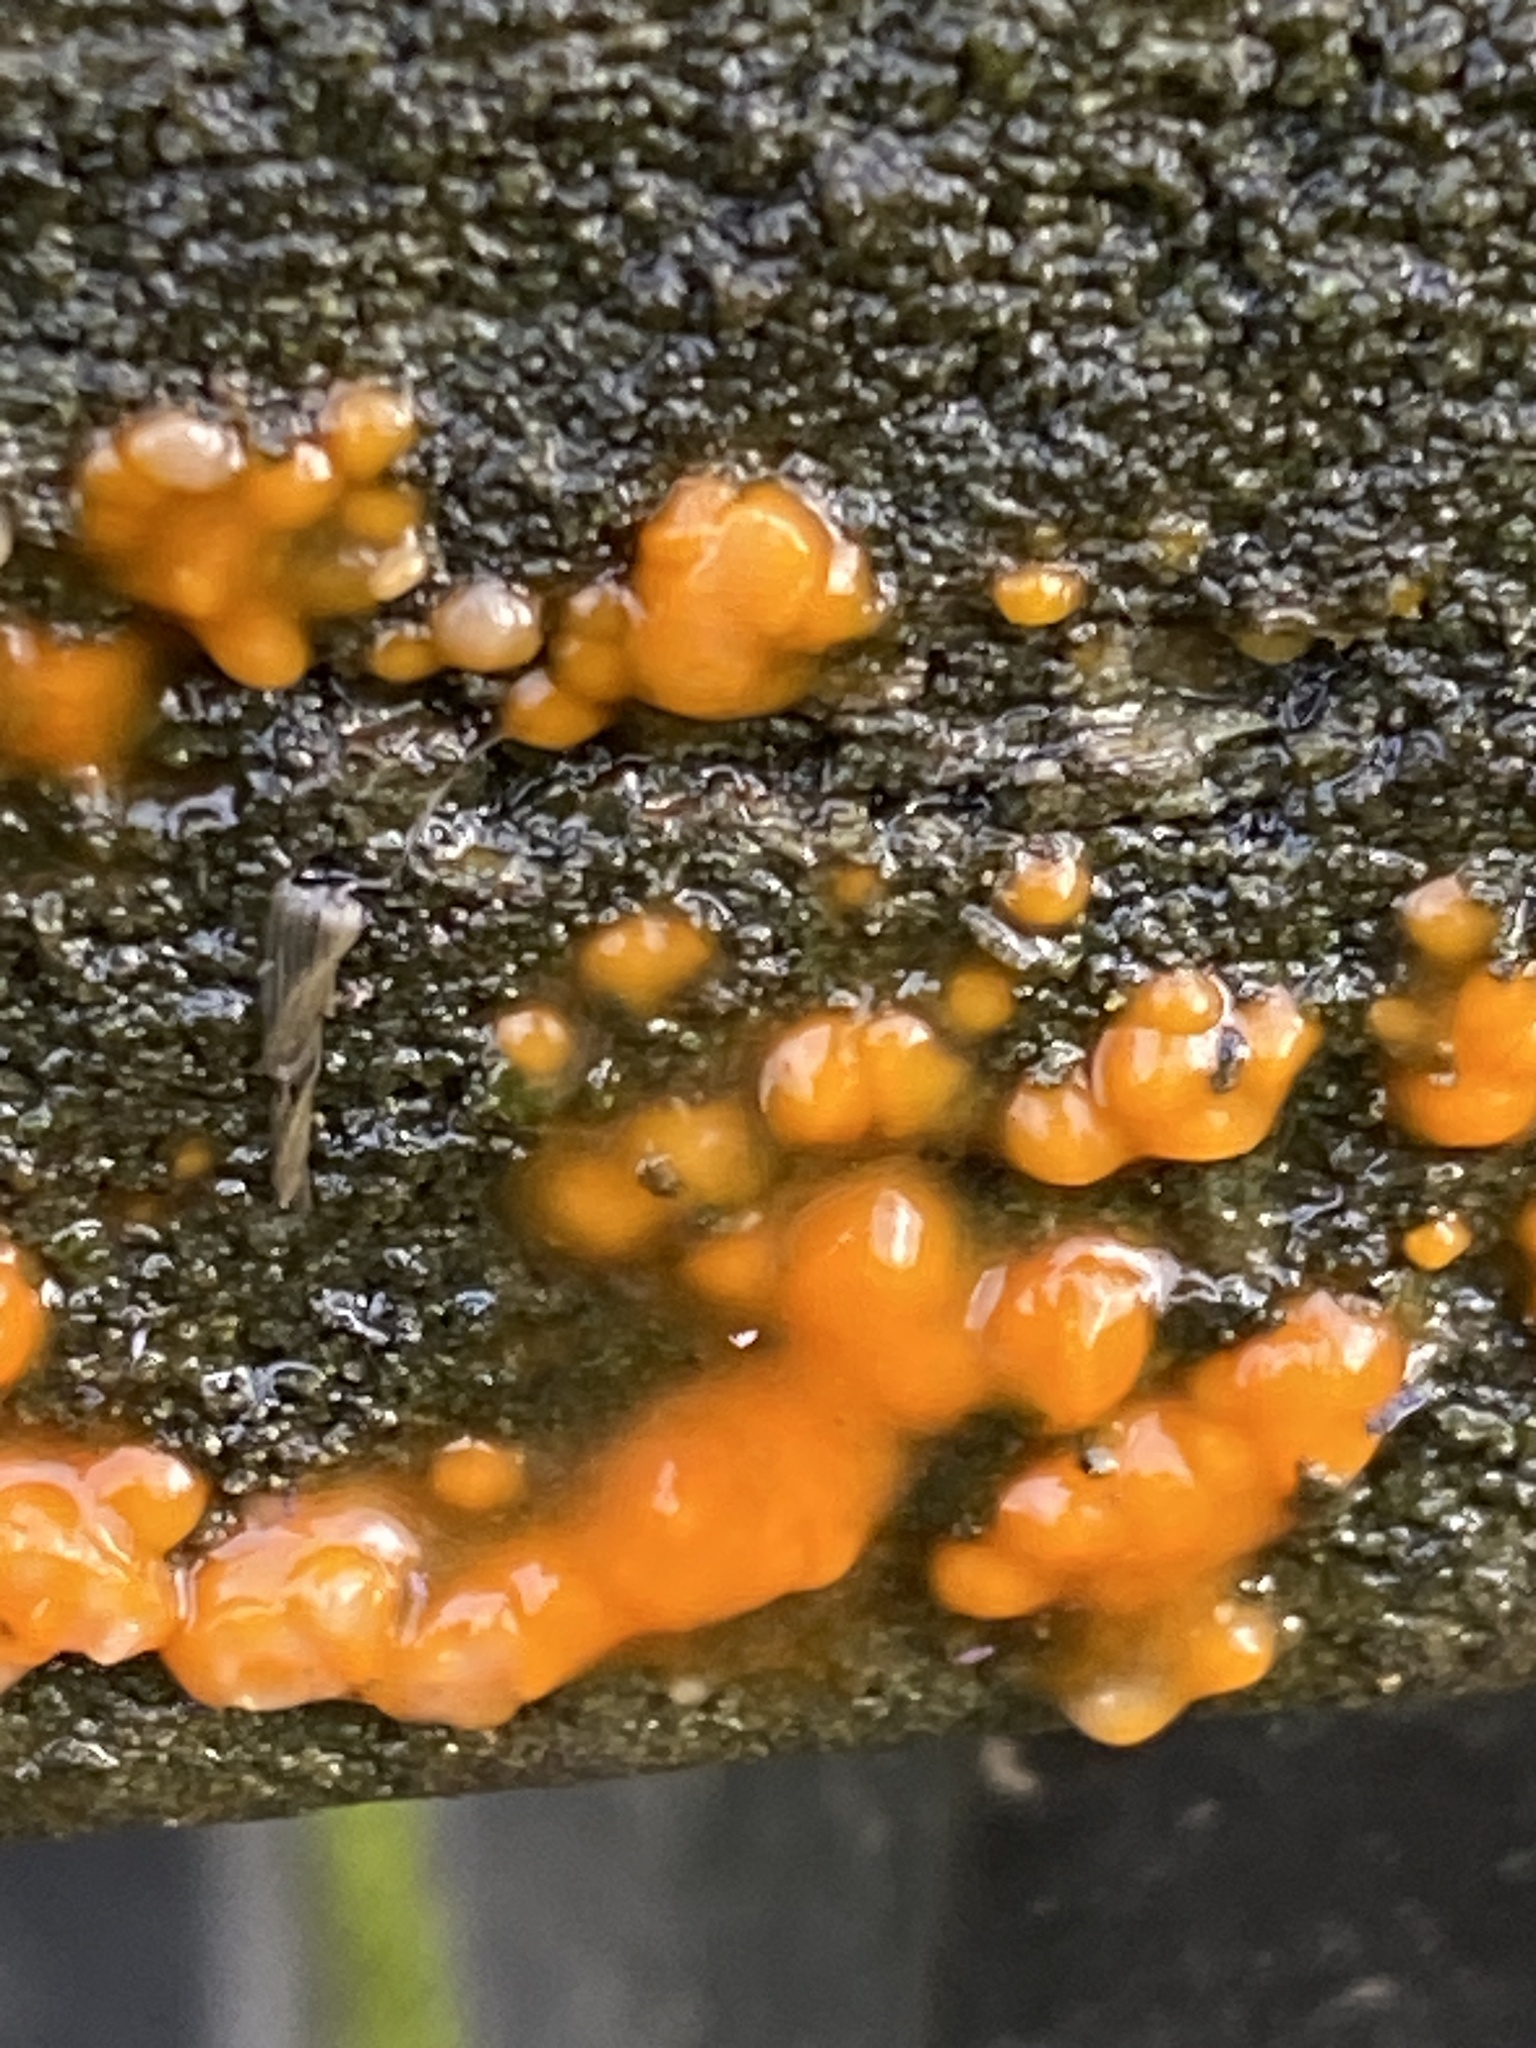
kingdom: Fungi
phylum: Basidiomycota
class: Dacrymycetes
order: Dacrymycetales
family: Dacrymycetaceae
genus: Dacrymyces
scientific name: Dacrymyces stillatus
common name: Common jelly spot
